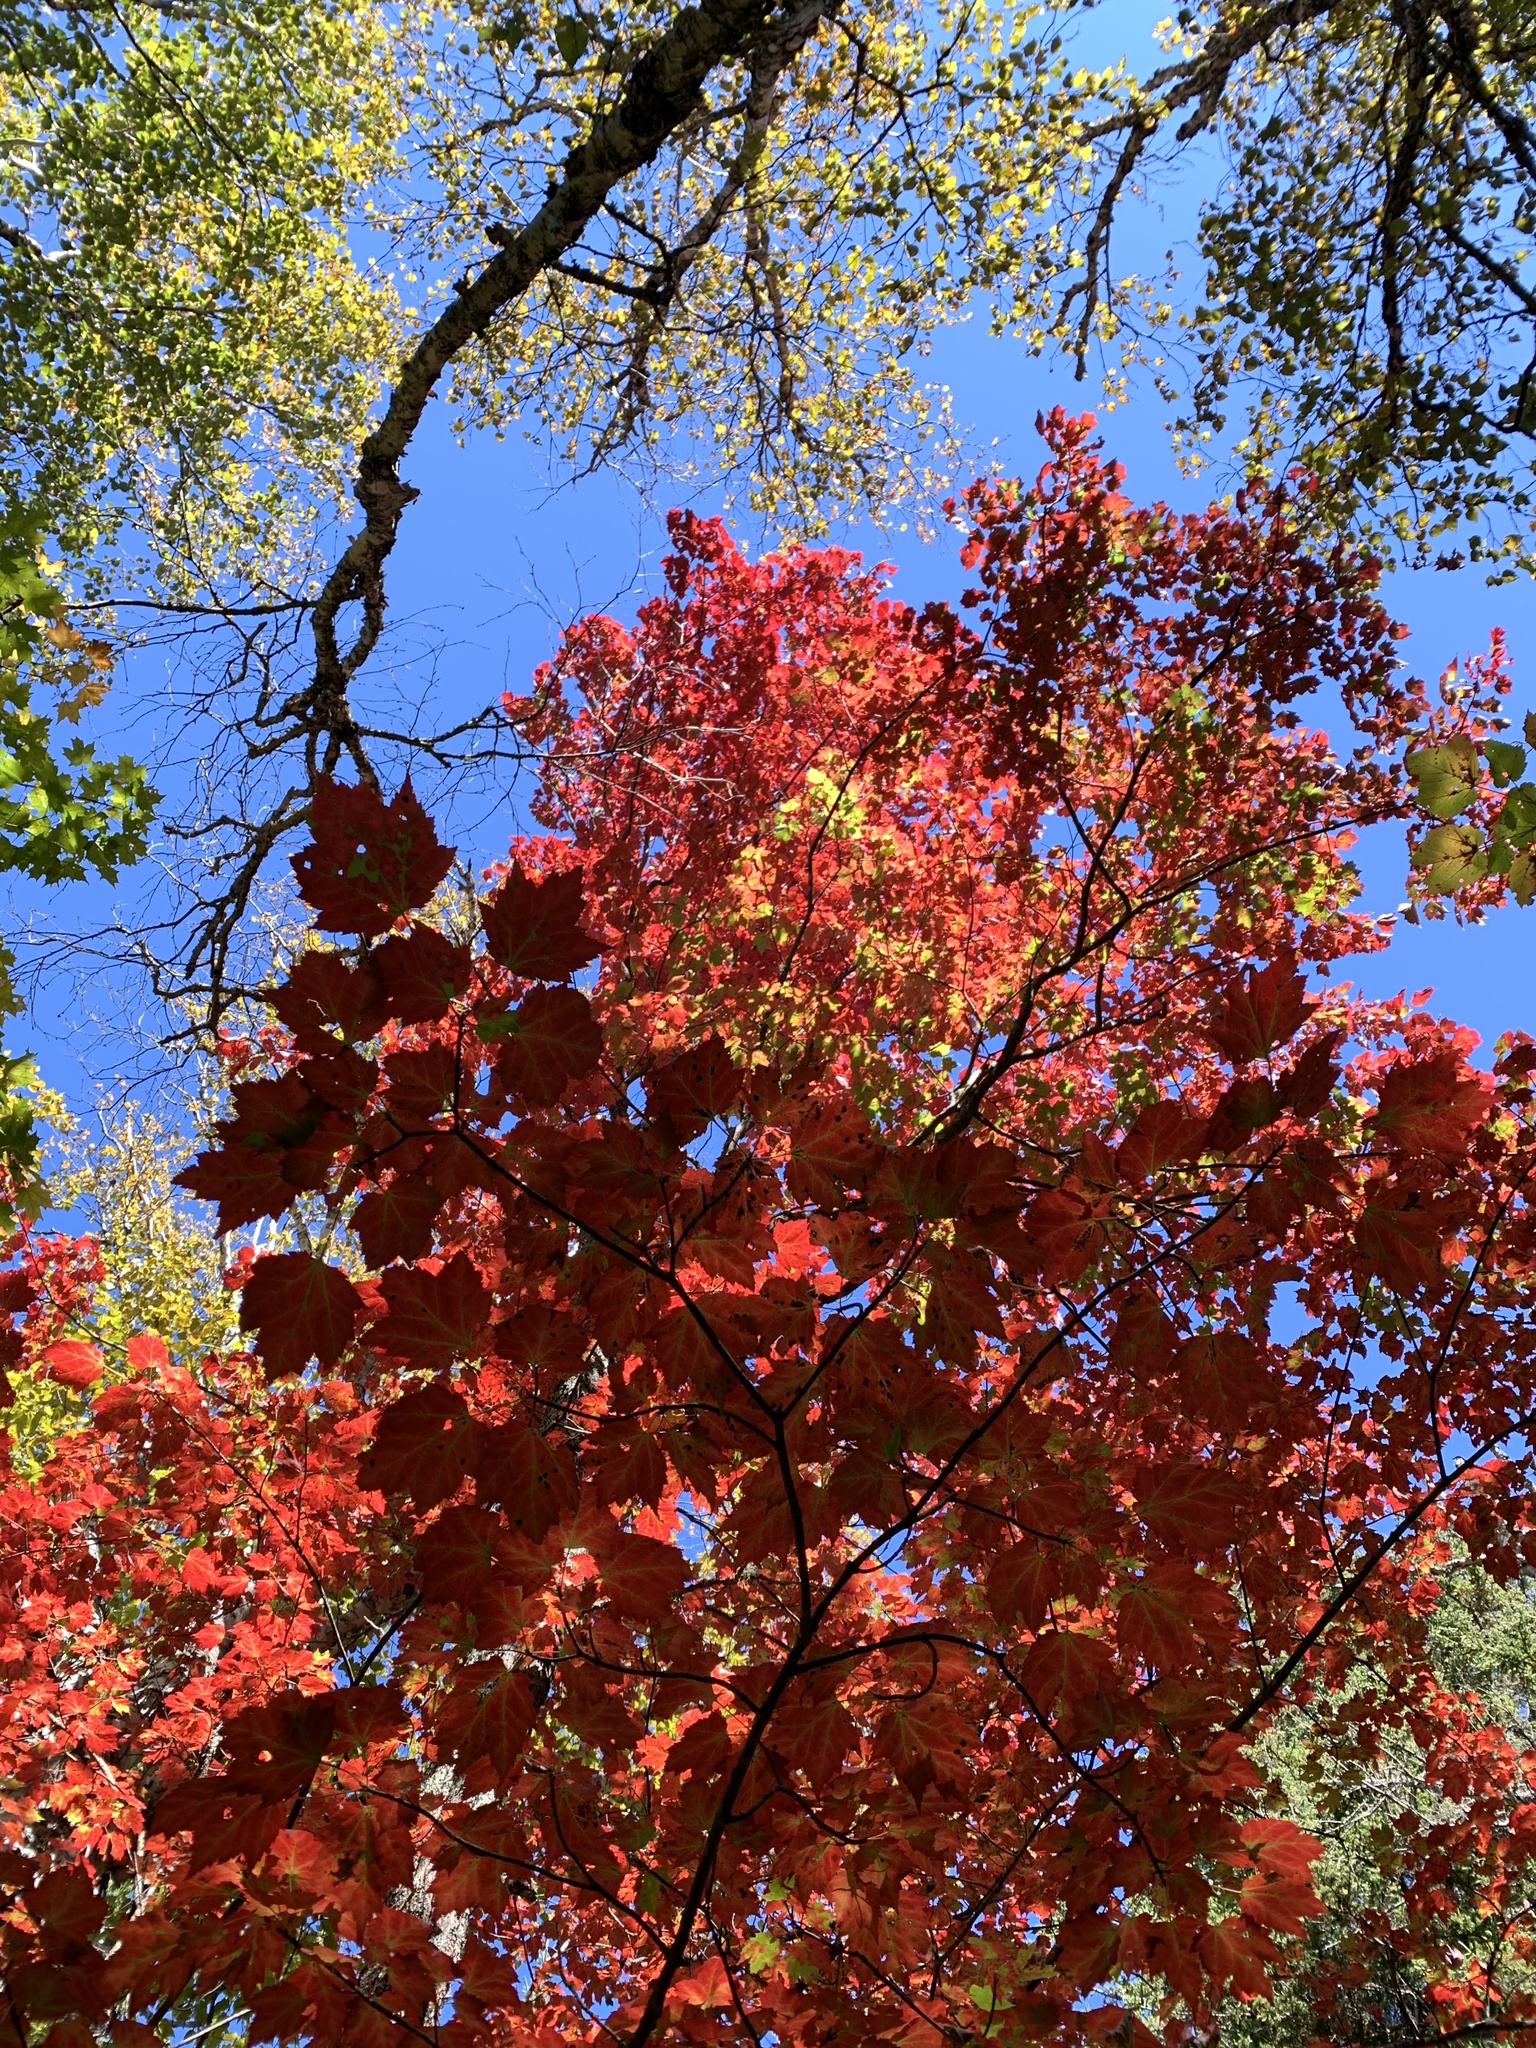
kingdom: Plantae
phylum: Tracheophyta
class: Magnoliopsida
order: Sapindales
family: Sapindaceae
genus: Acer
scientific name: Acer rubrum
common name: Red maple
